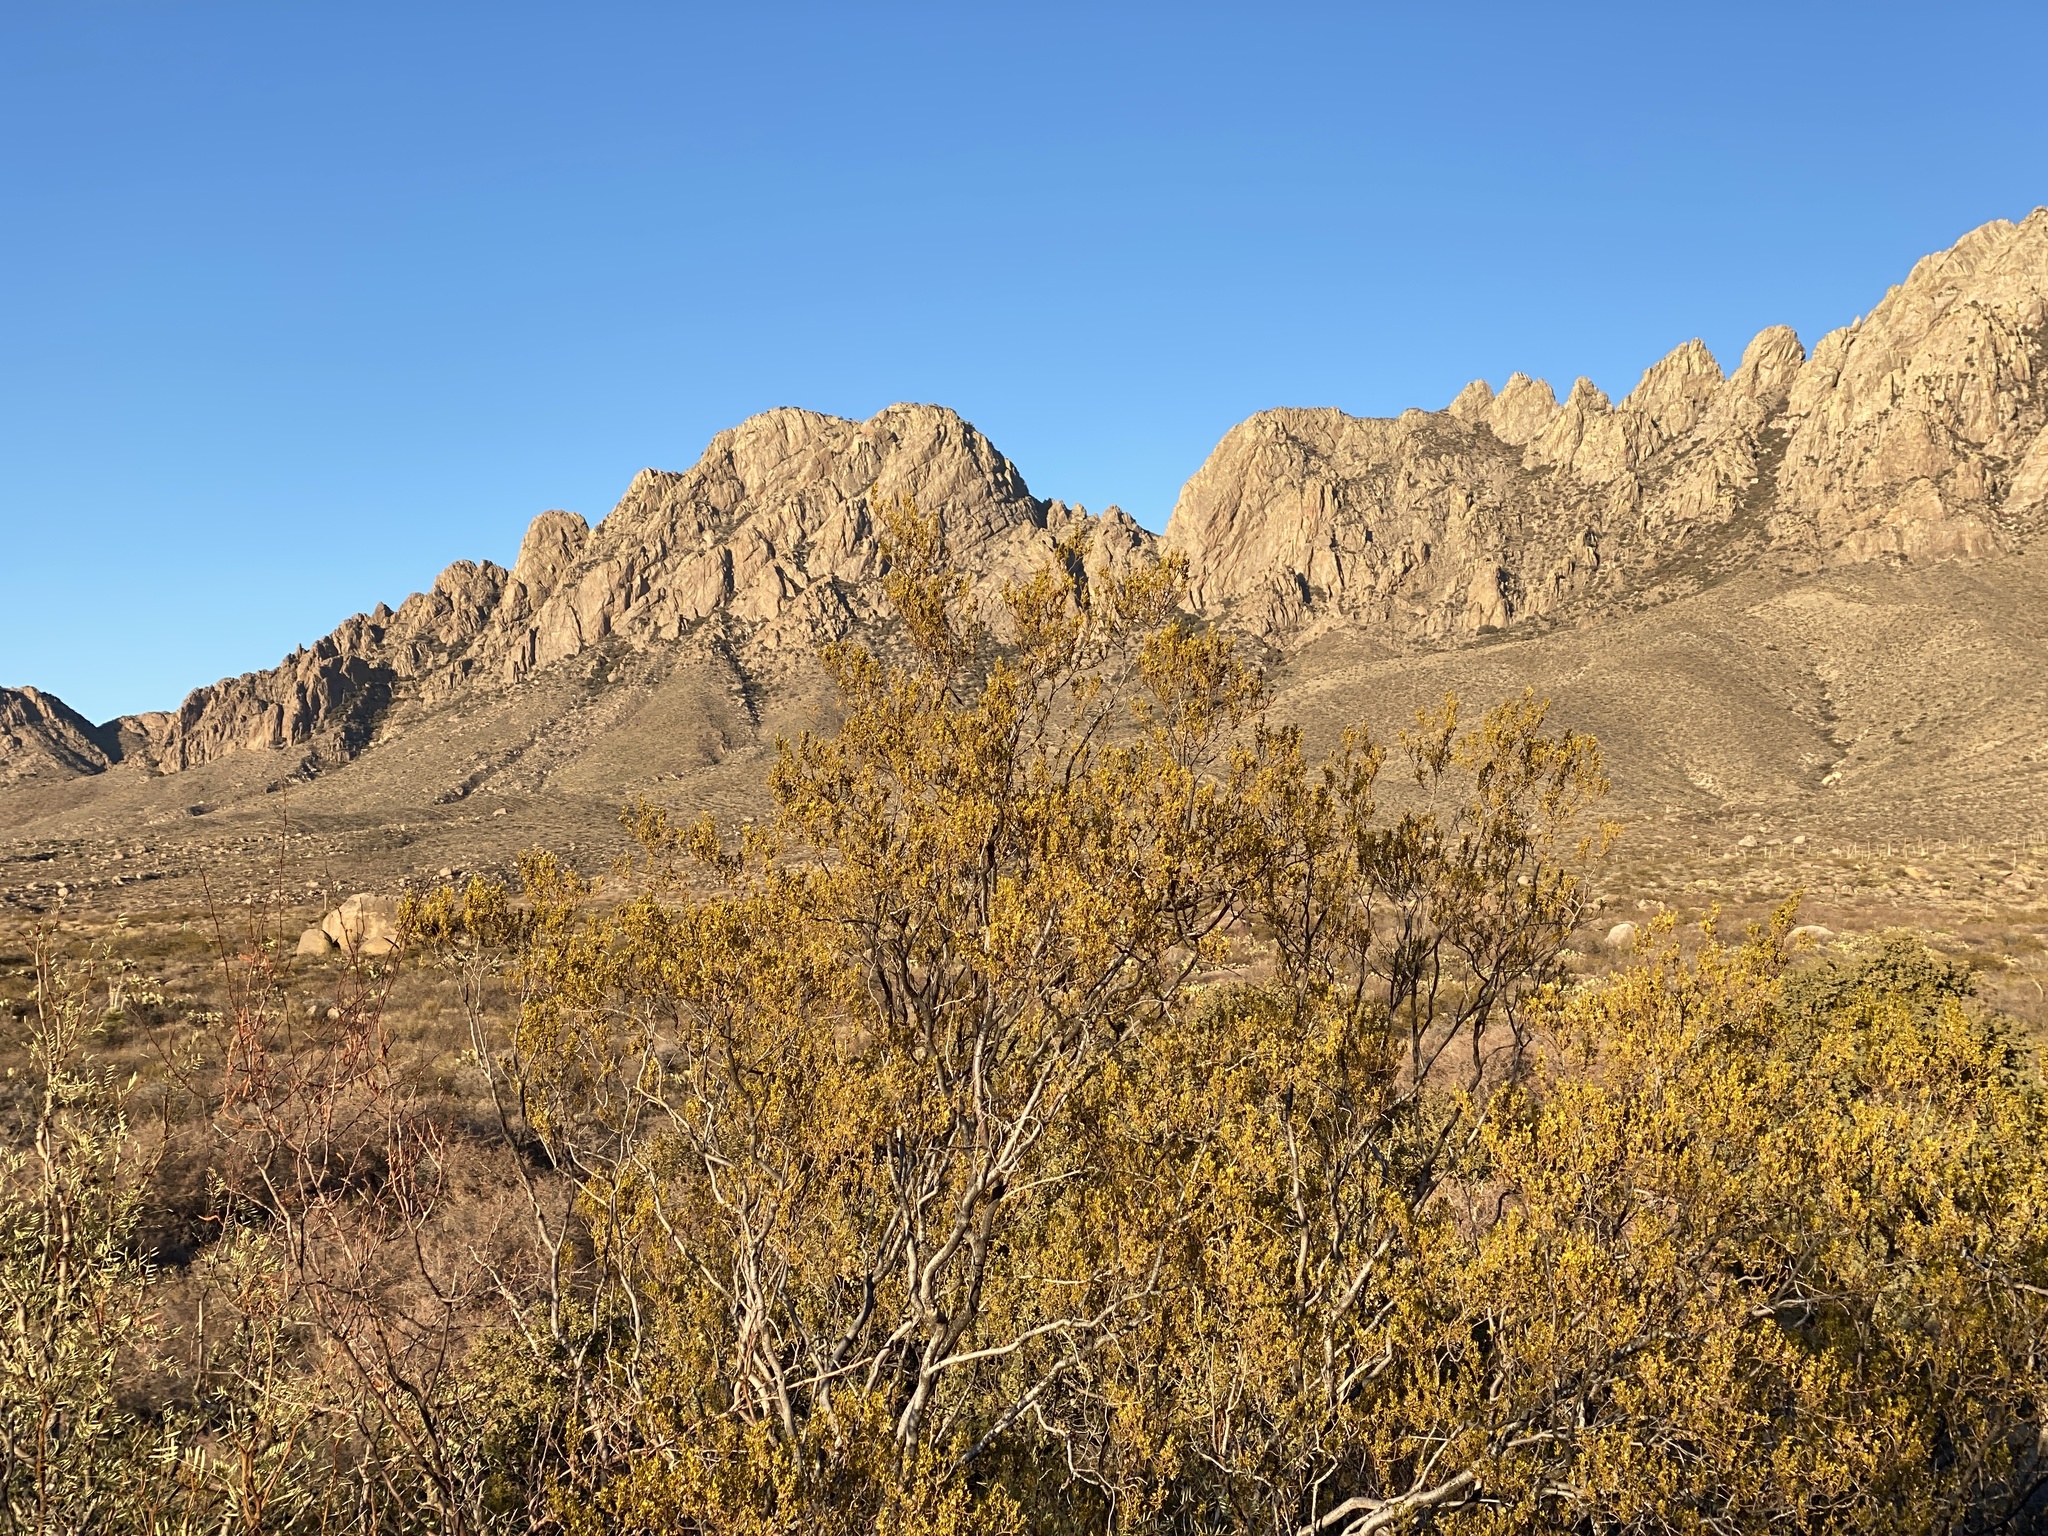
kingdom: Plantae
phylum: Tracheophyta
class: Magnoliopsida
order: Zygophyllales
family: Zygophyllaceae
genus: Larrea
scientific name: Larrea tridentata
